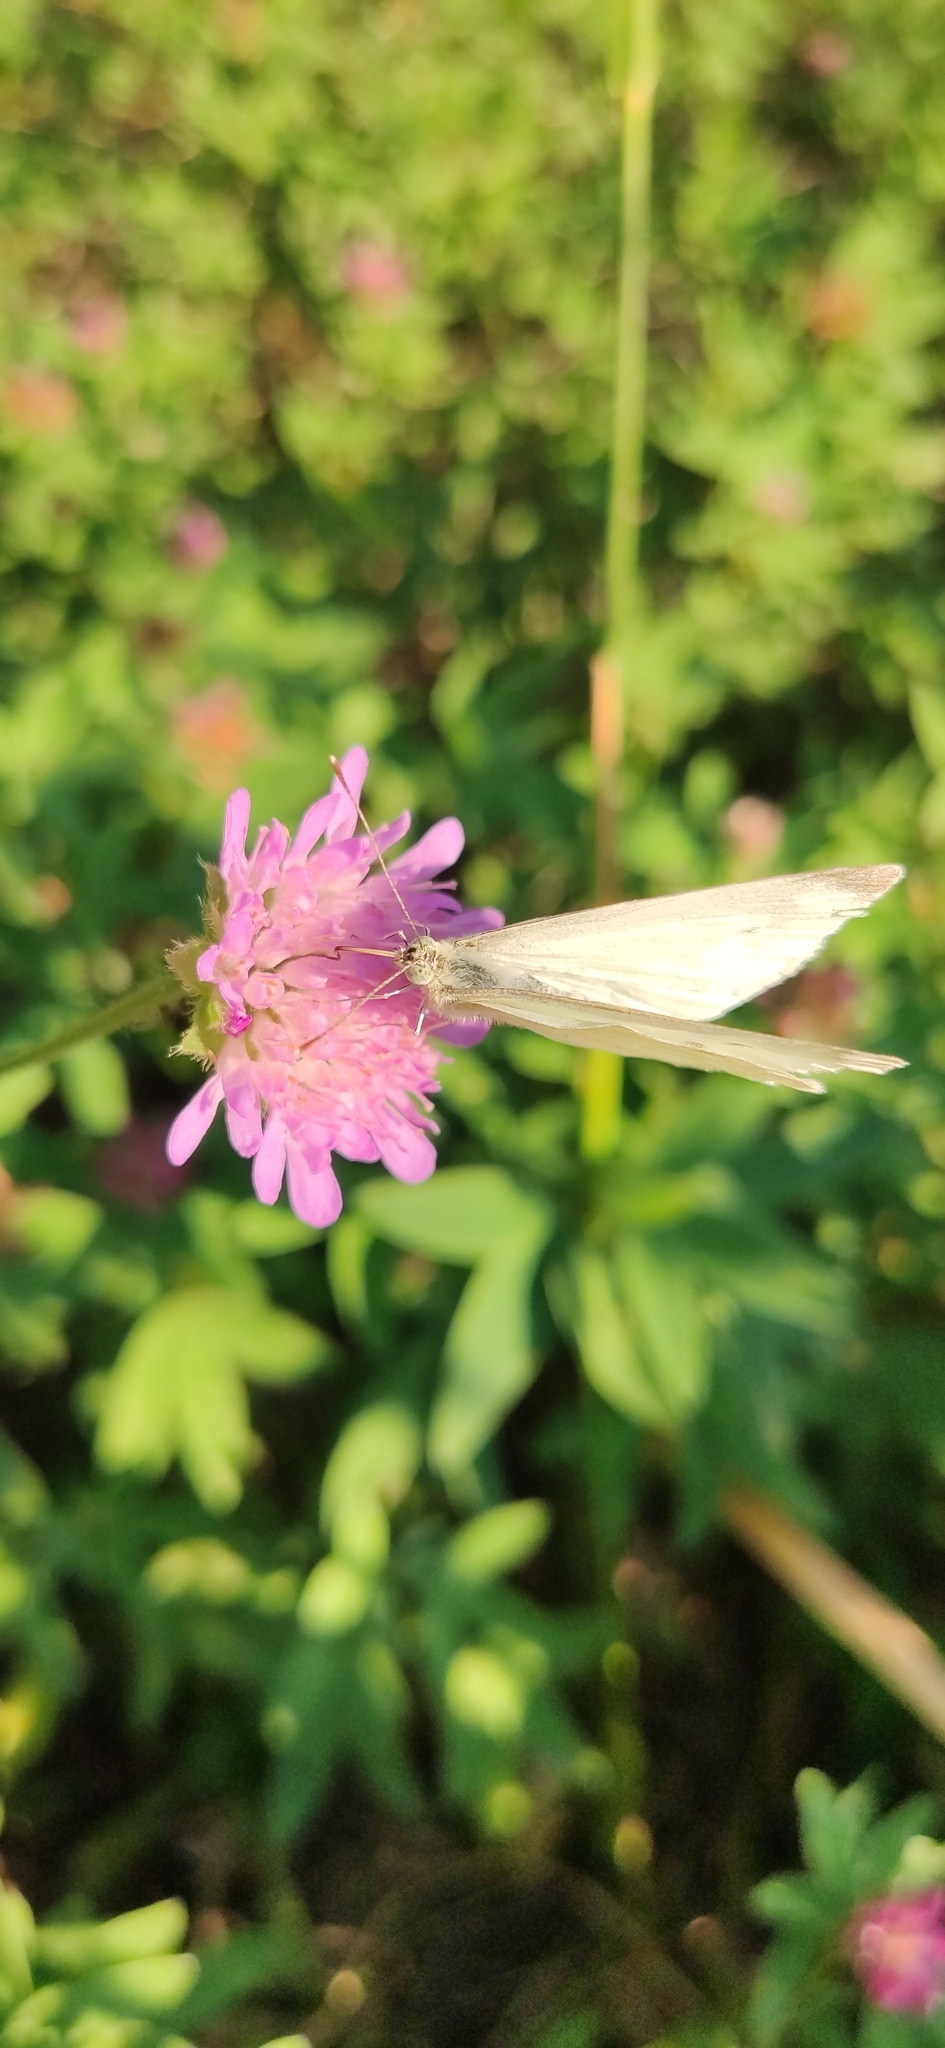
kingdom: Animalia
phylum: Arthropoda
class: Insecta
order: Lepidoptera
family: Pieridae
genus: Pieris
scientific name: Pieris rapae
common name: Small white
